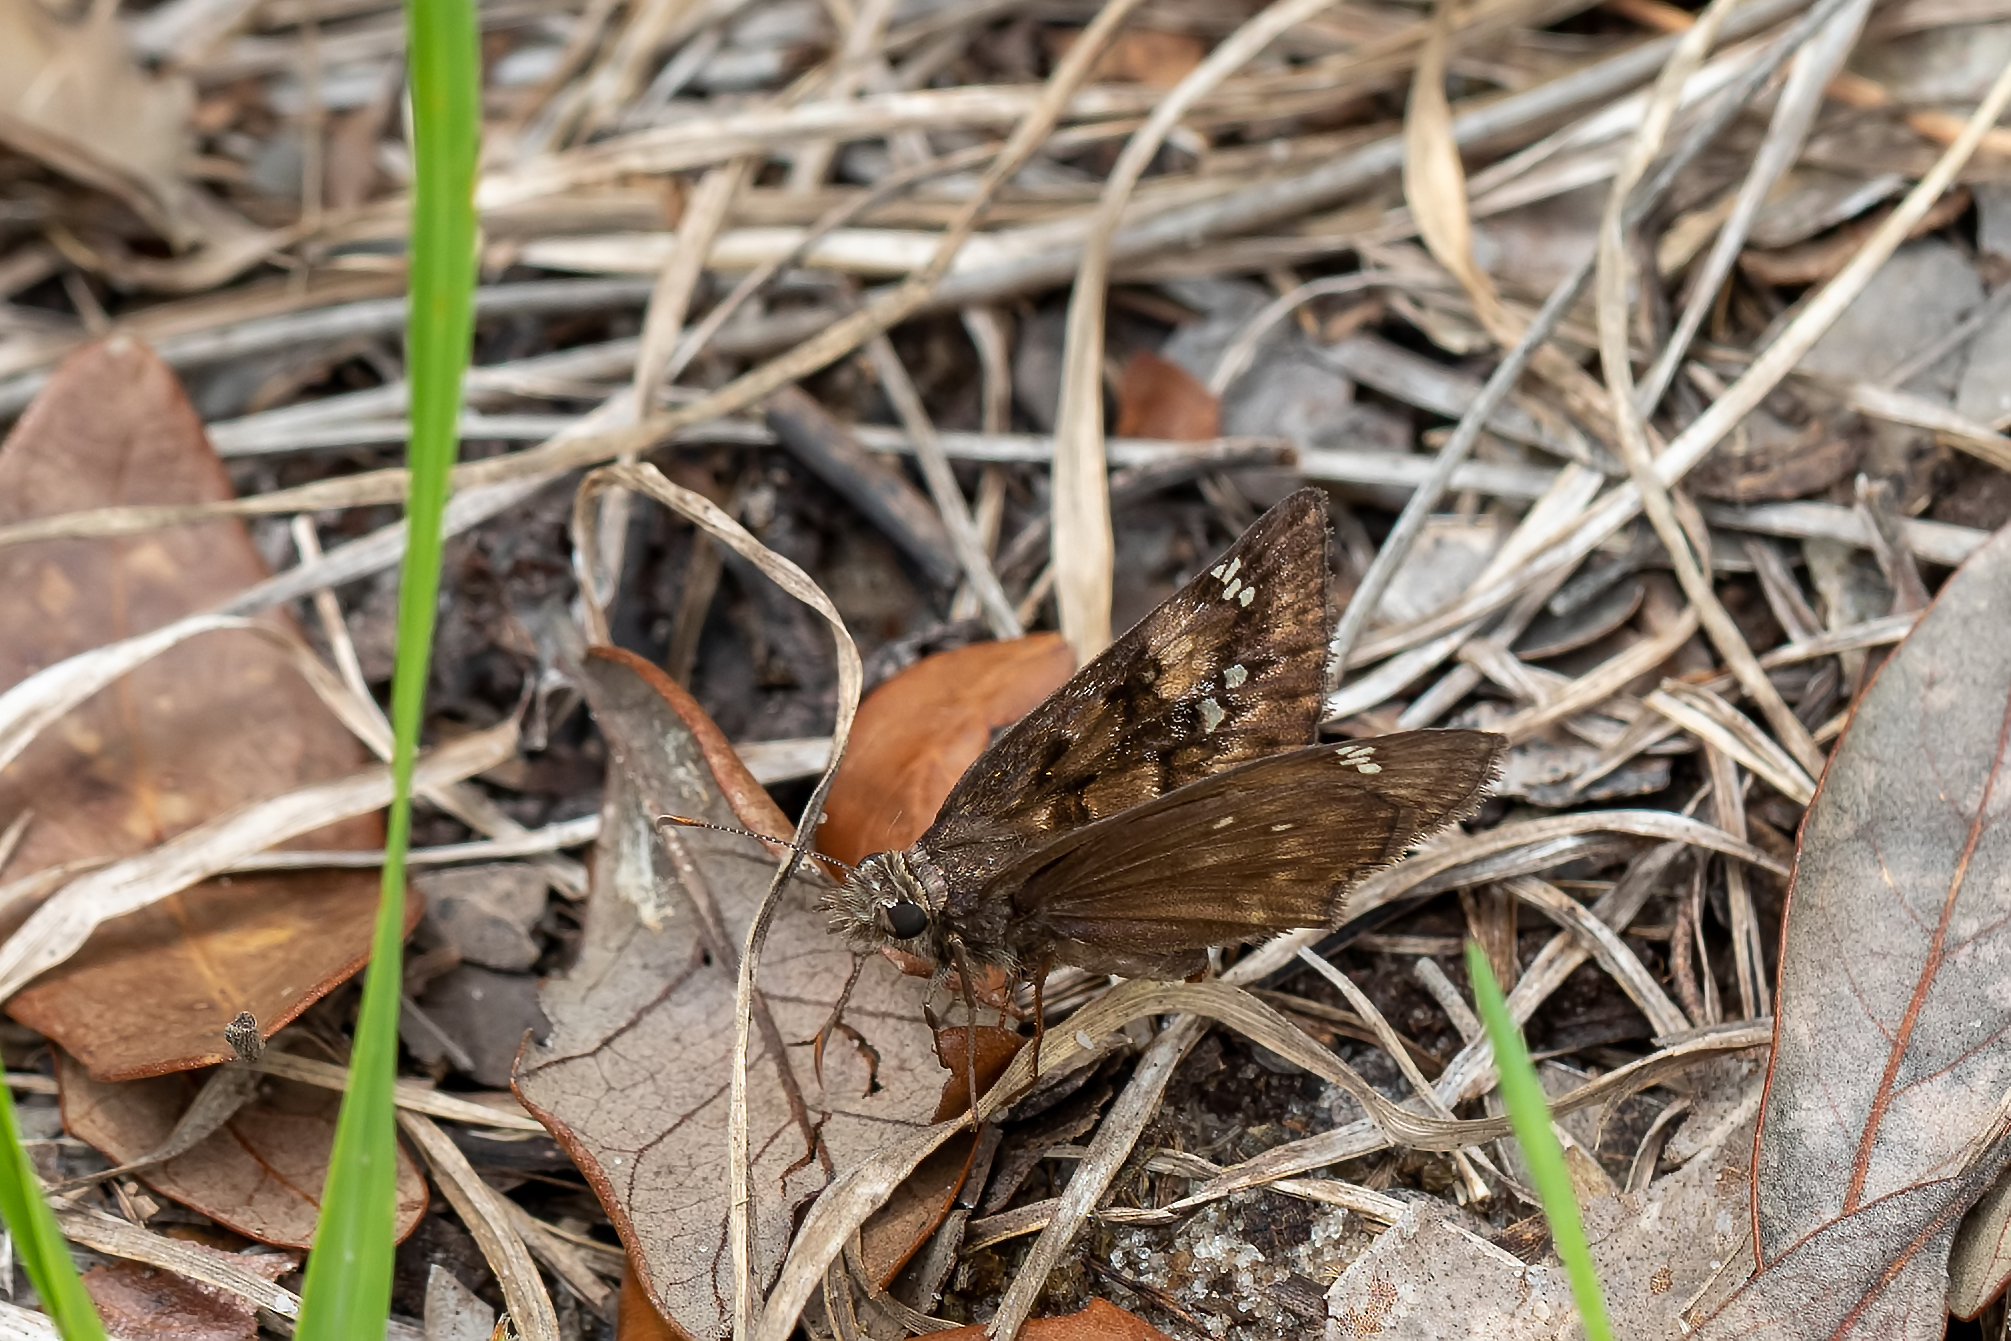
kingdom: Animalia
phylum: Arthropoda
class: Insecta
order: Lepidoptera
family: Hesperiidae
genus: Erynnis
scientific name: Erynnis horatius
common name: Horace's duskywing
